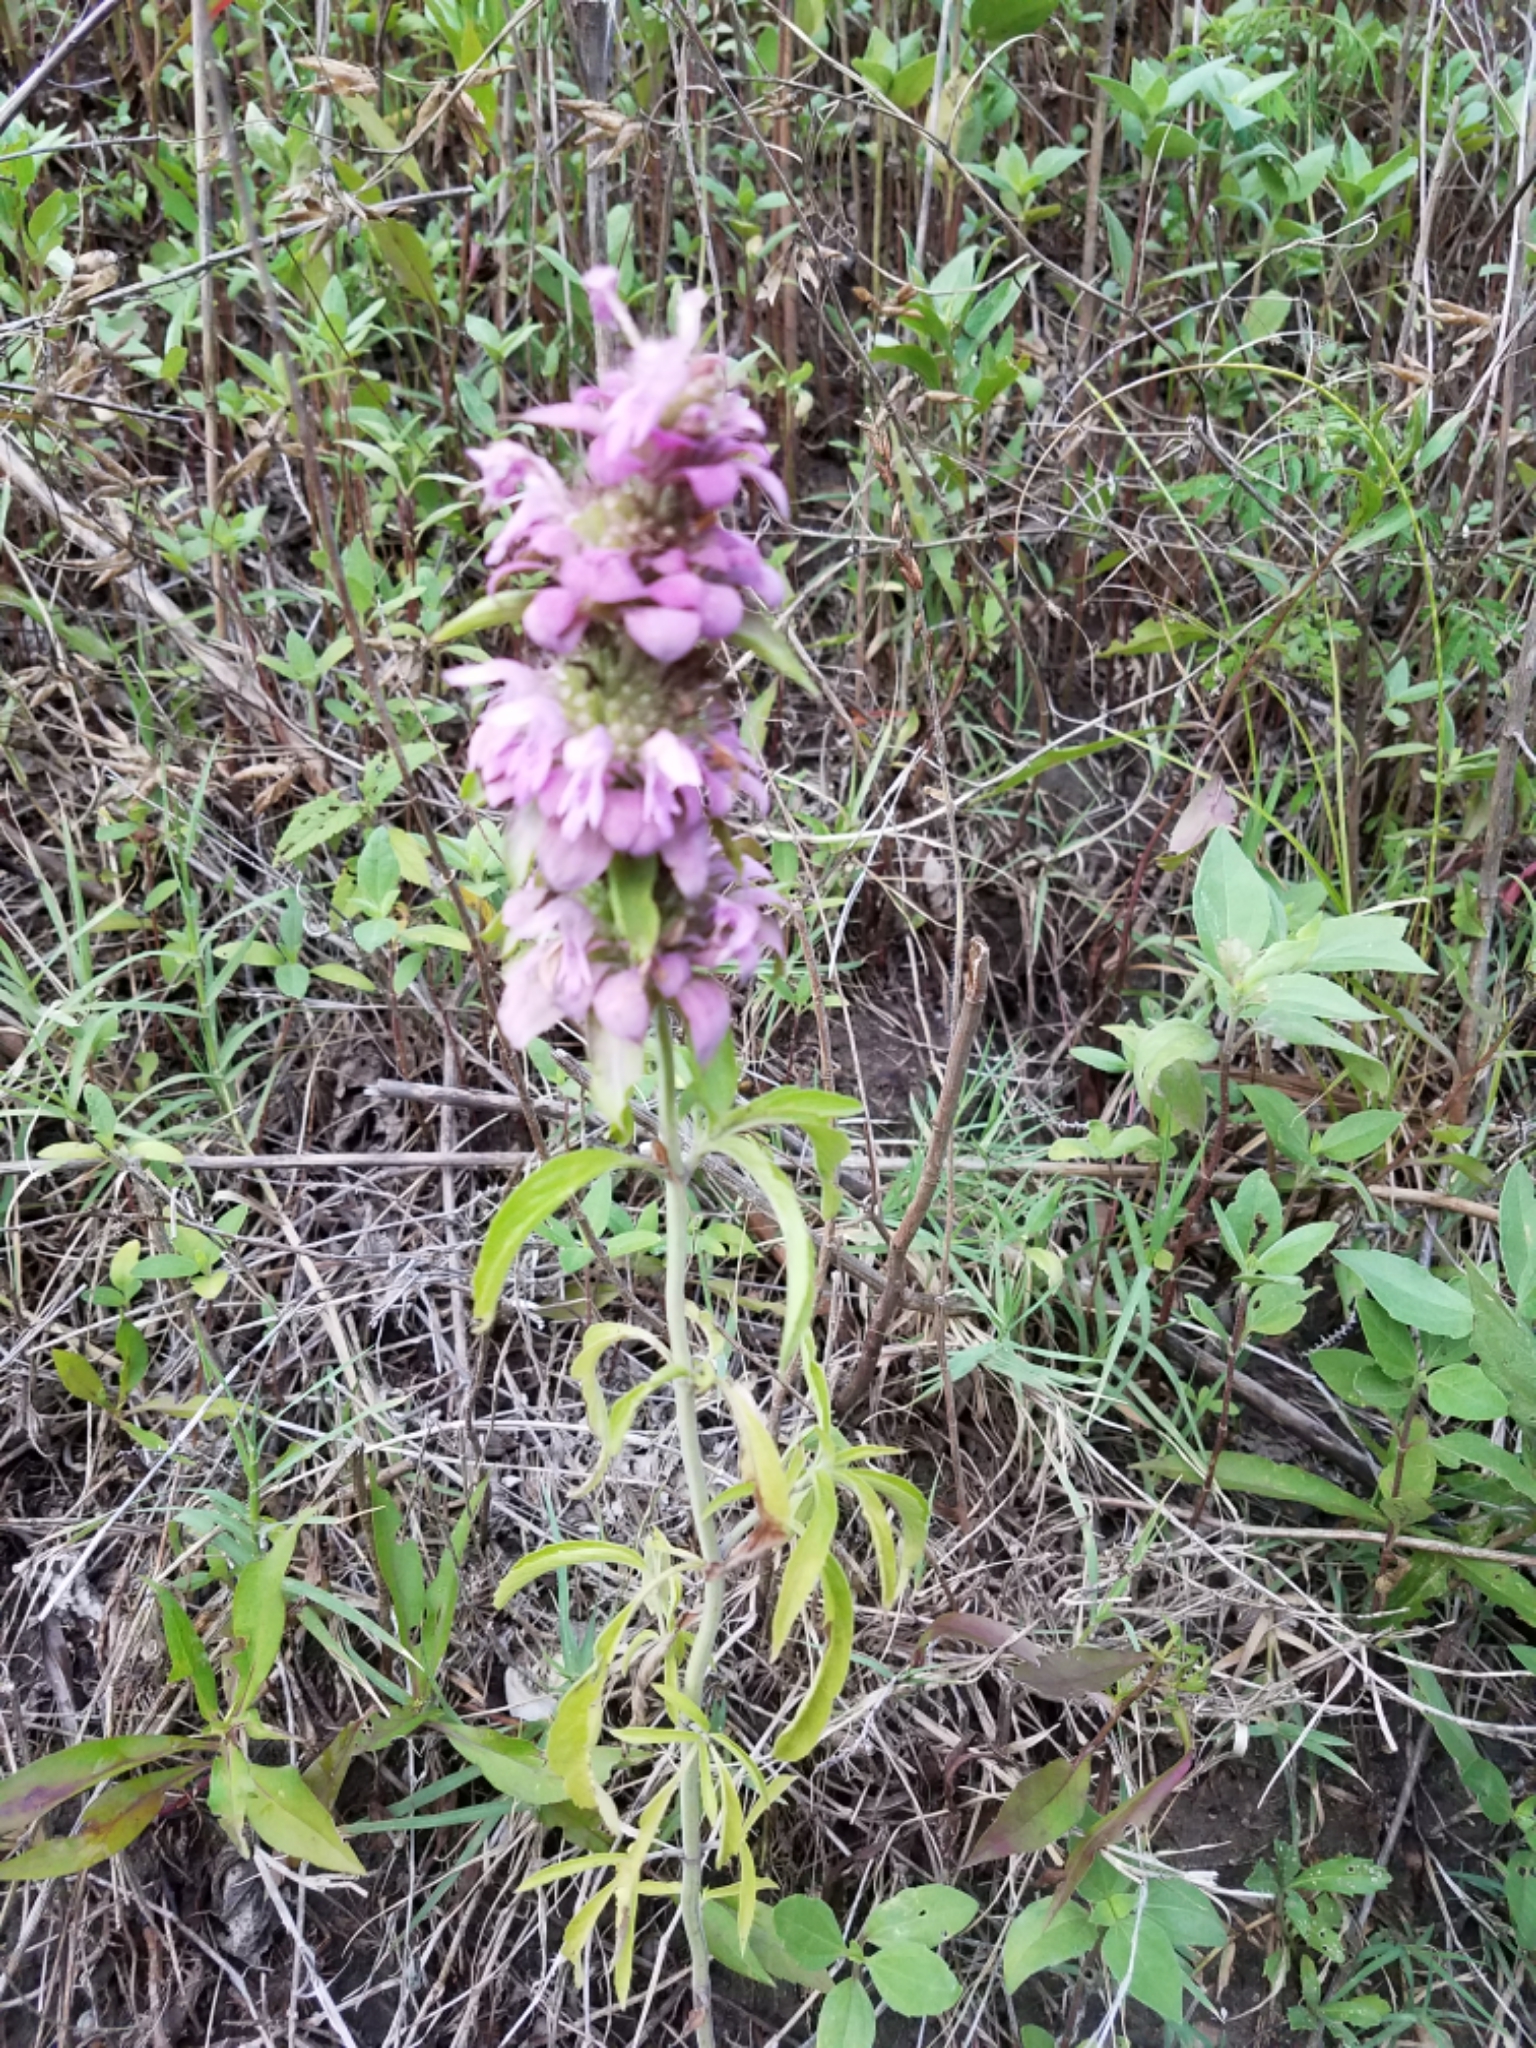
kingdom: Plantae
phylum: Tracheophyta
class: Magnoliopsida
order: Lamiales
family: Lamiaceae
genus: Monarda
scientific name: Monarda citriodora
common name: Lemon beebalm
